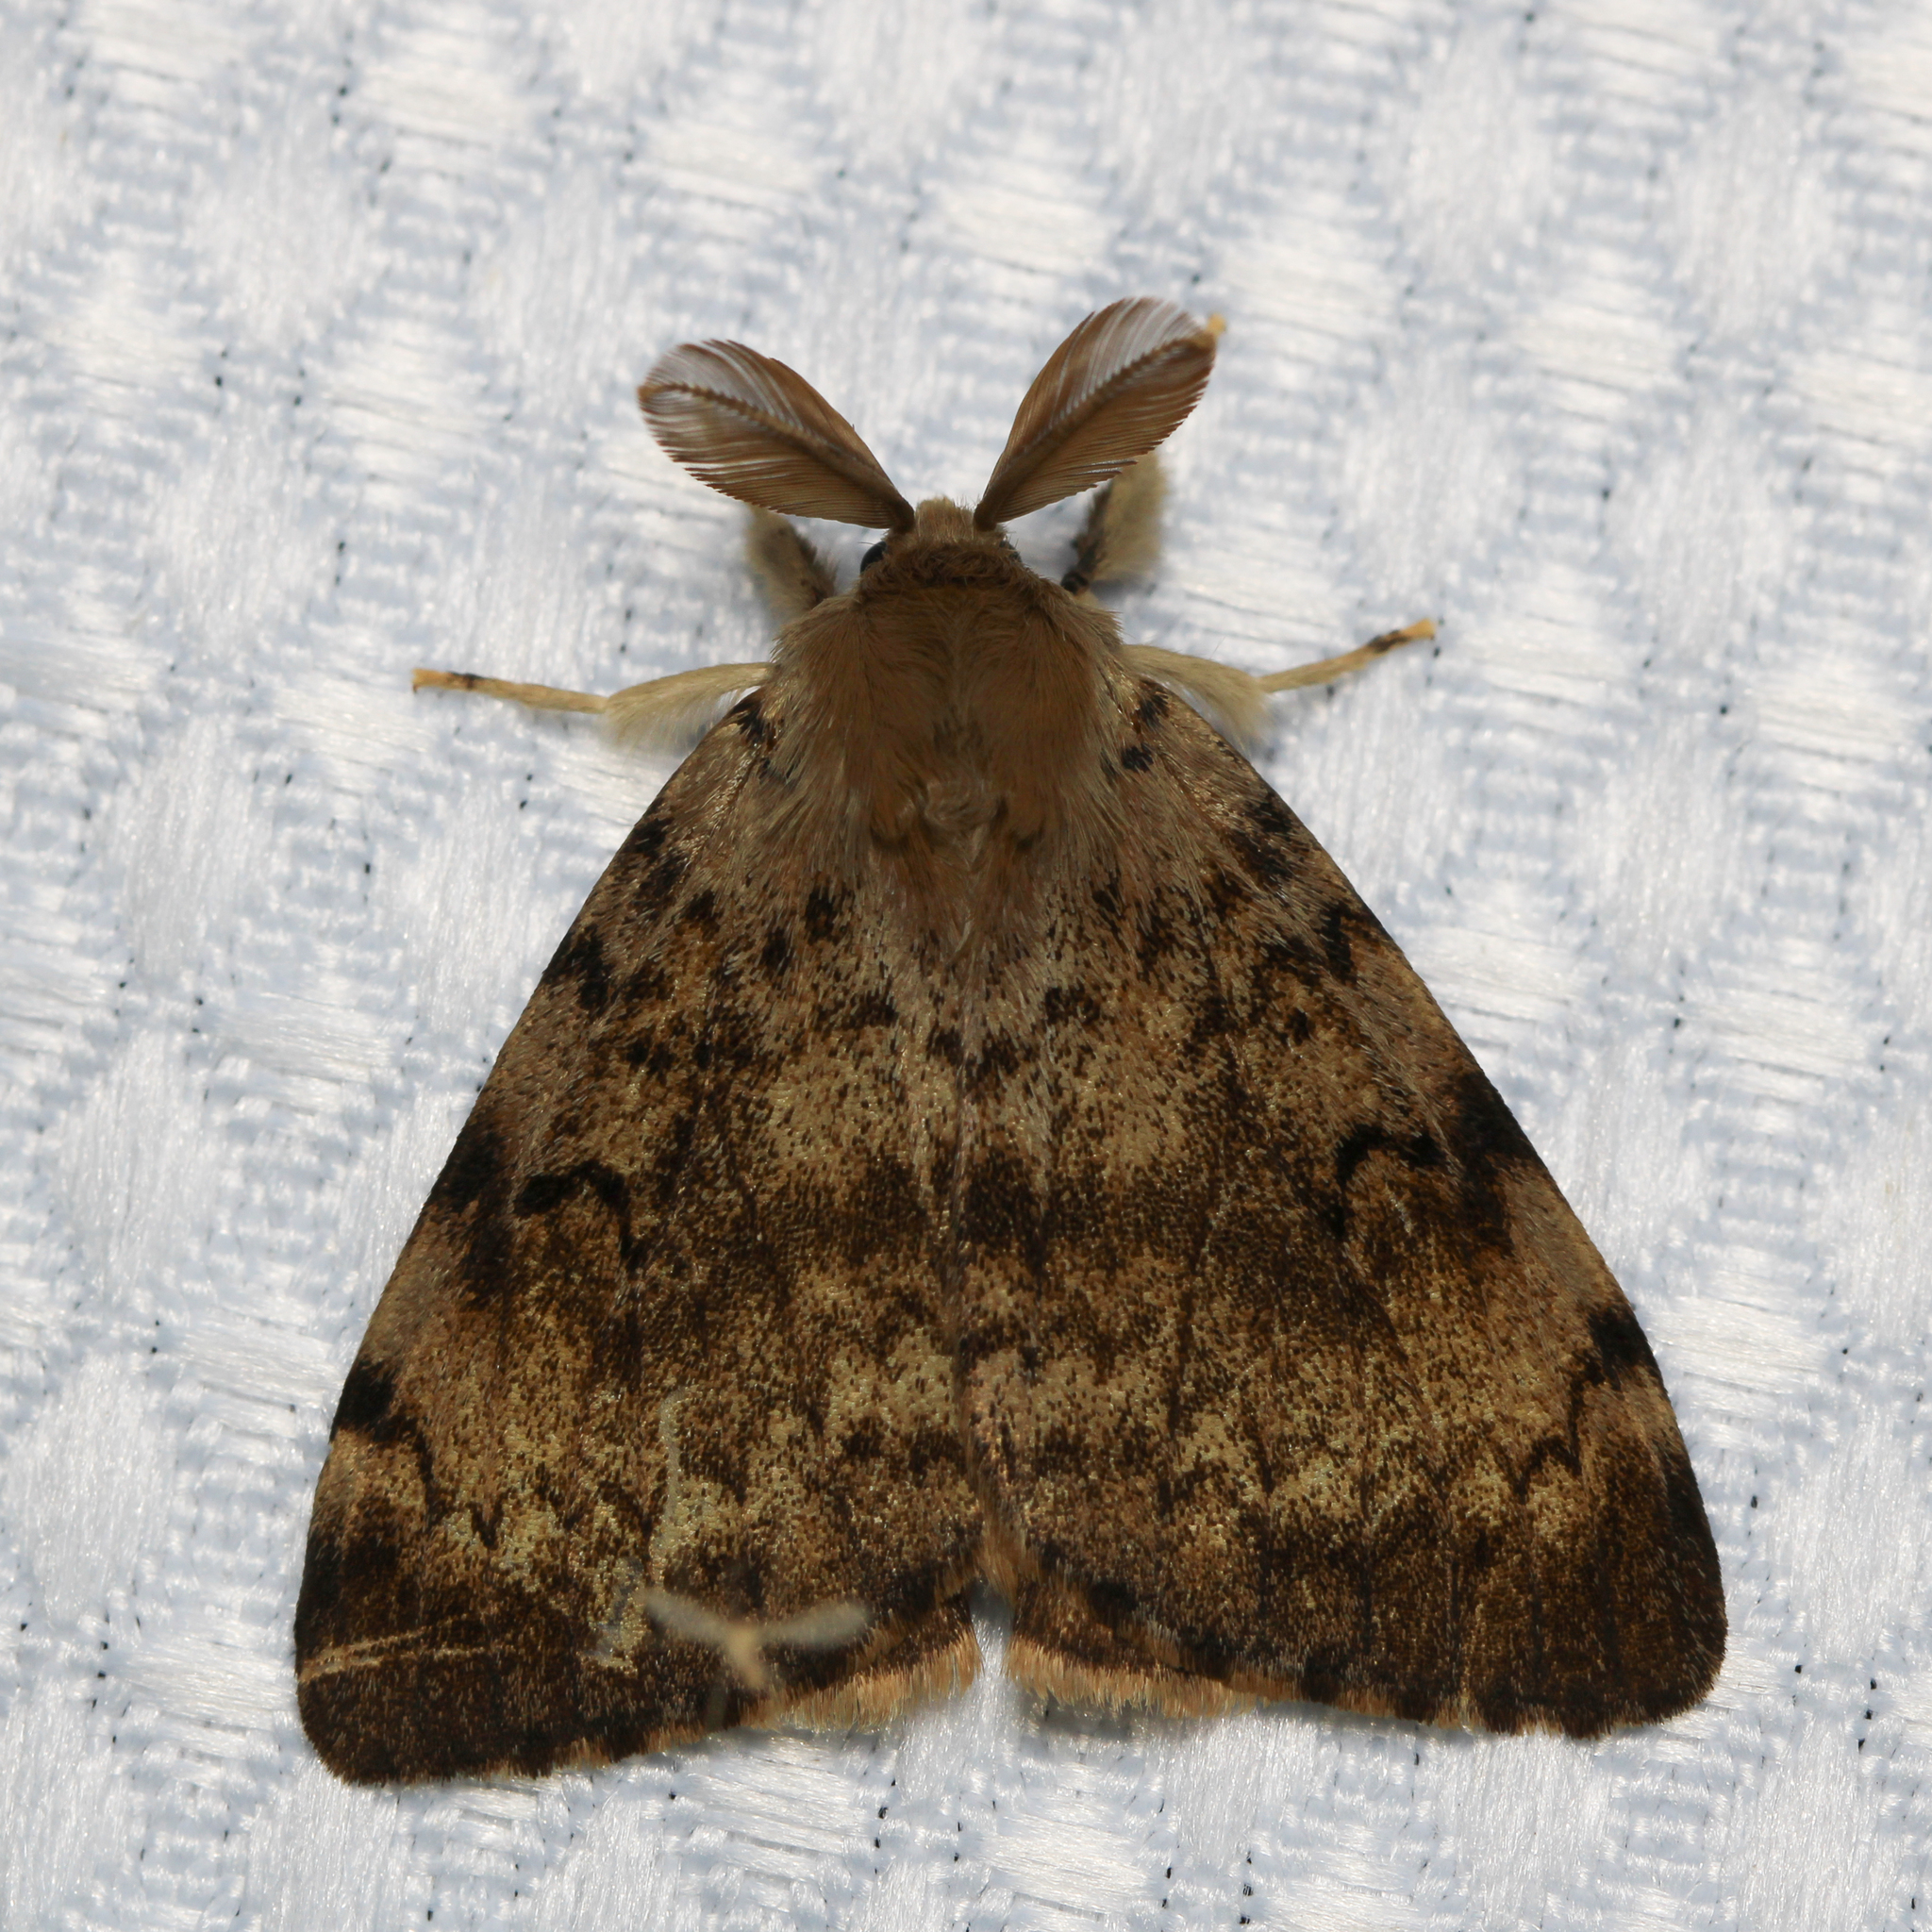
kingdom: Animalia
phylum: Arthropoda
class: Insecta
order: Lepidoptera
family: Erebidae
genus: Lymantria
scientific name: Lymantria dispar
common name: Gypsy moth
